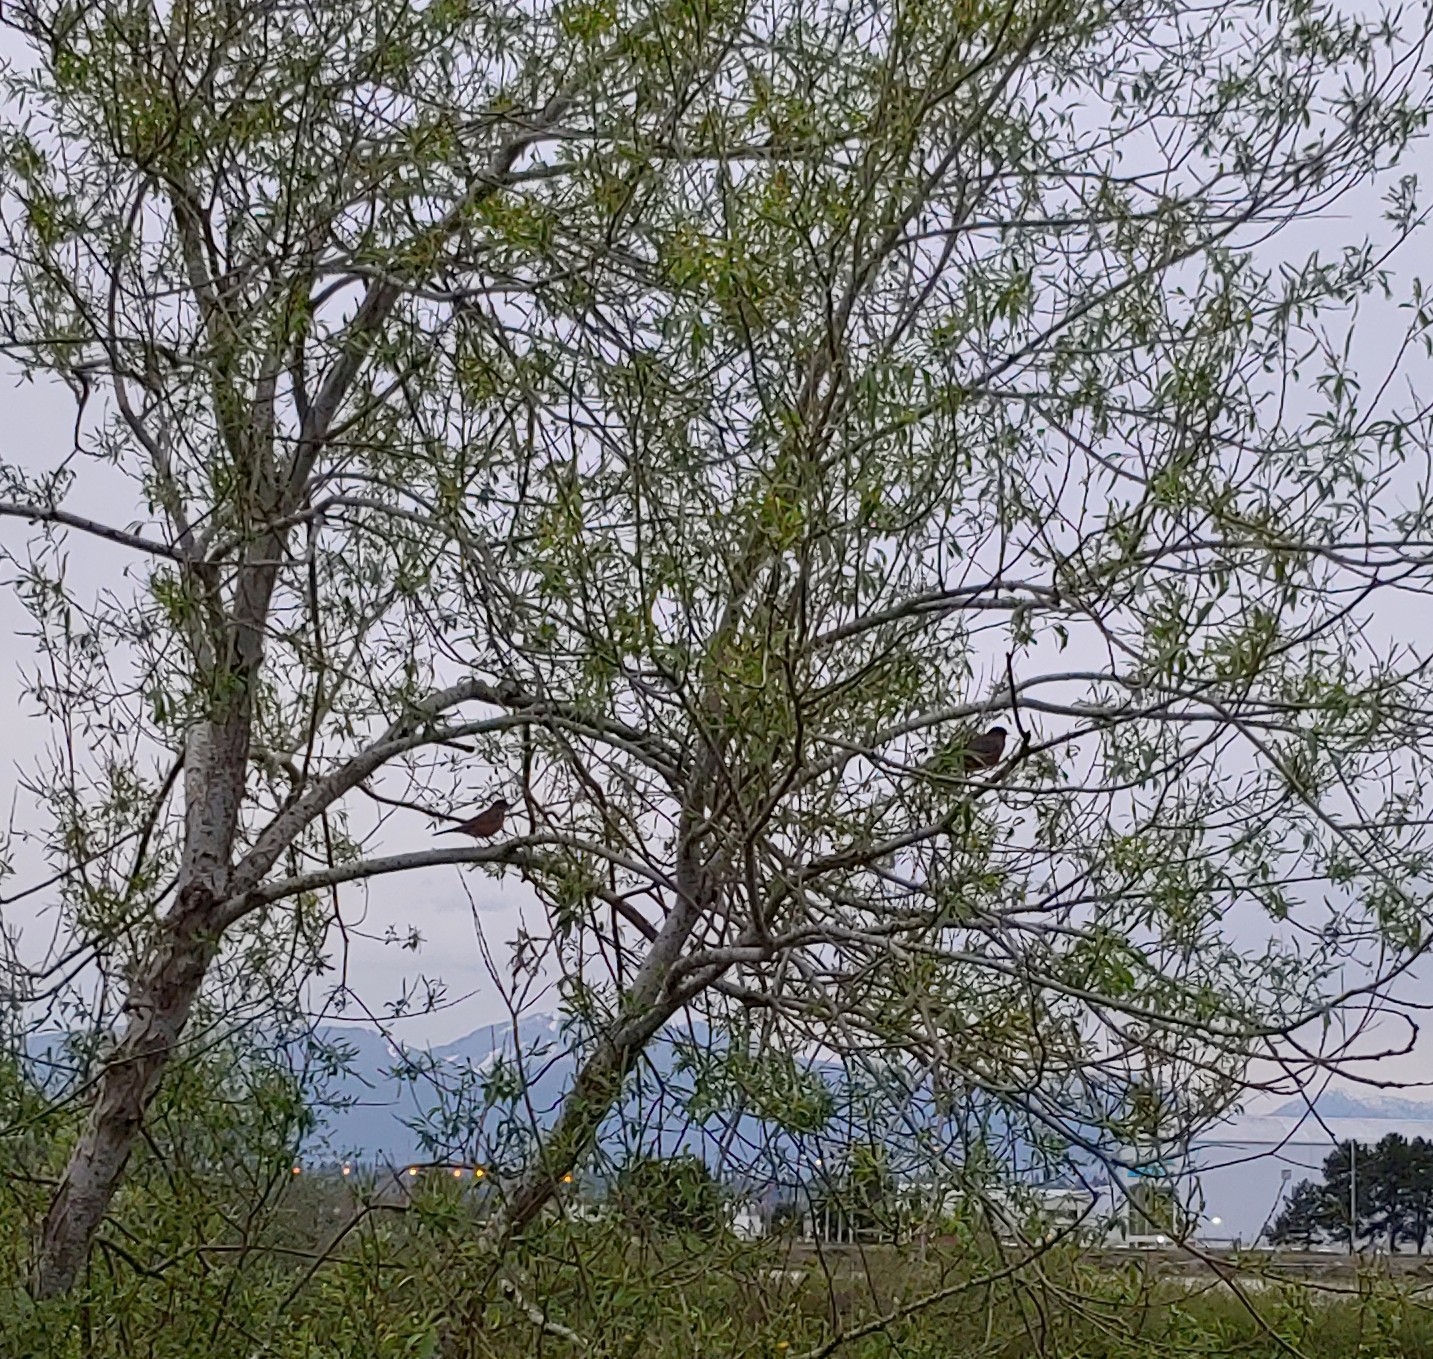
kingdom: Animalia
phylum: Chordata
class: Aves
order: Passeriformes
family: Turdidae
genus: Turdus
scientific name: Turdus migratorius
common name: American robin
